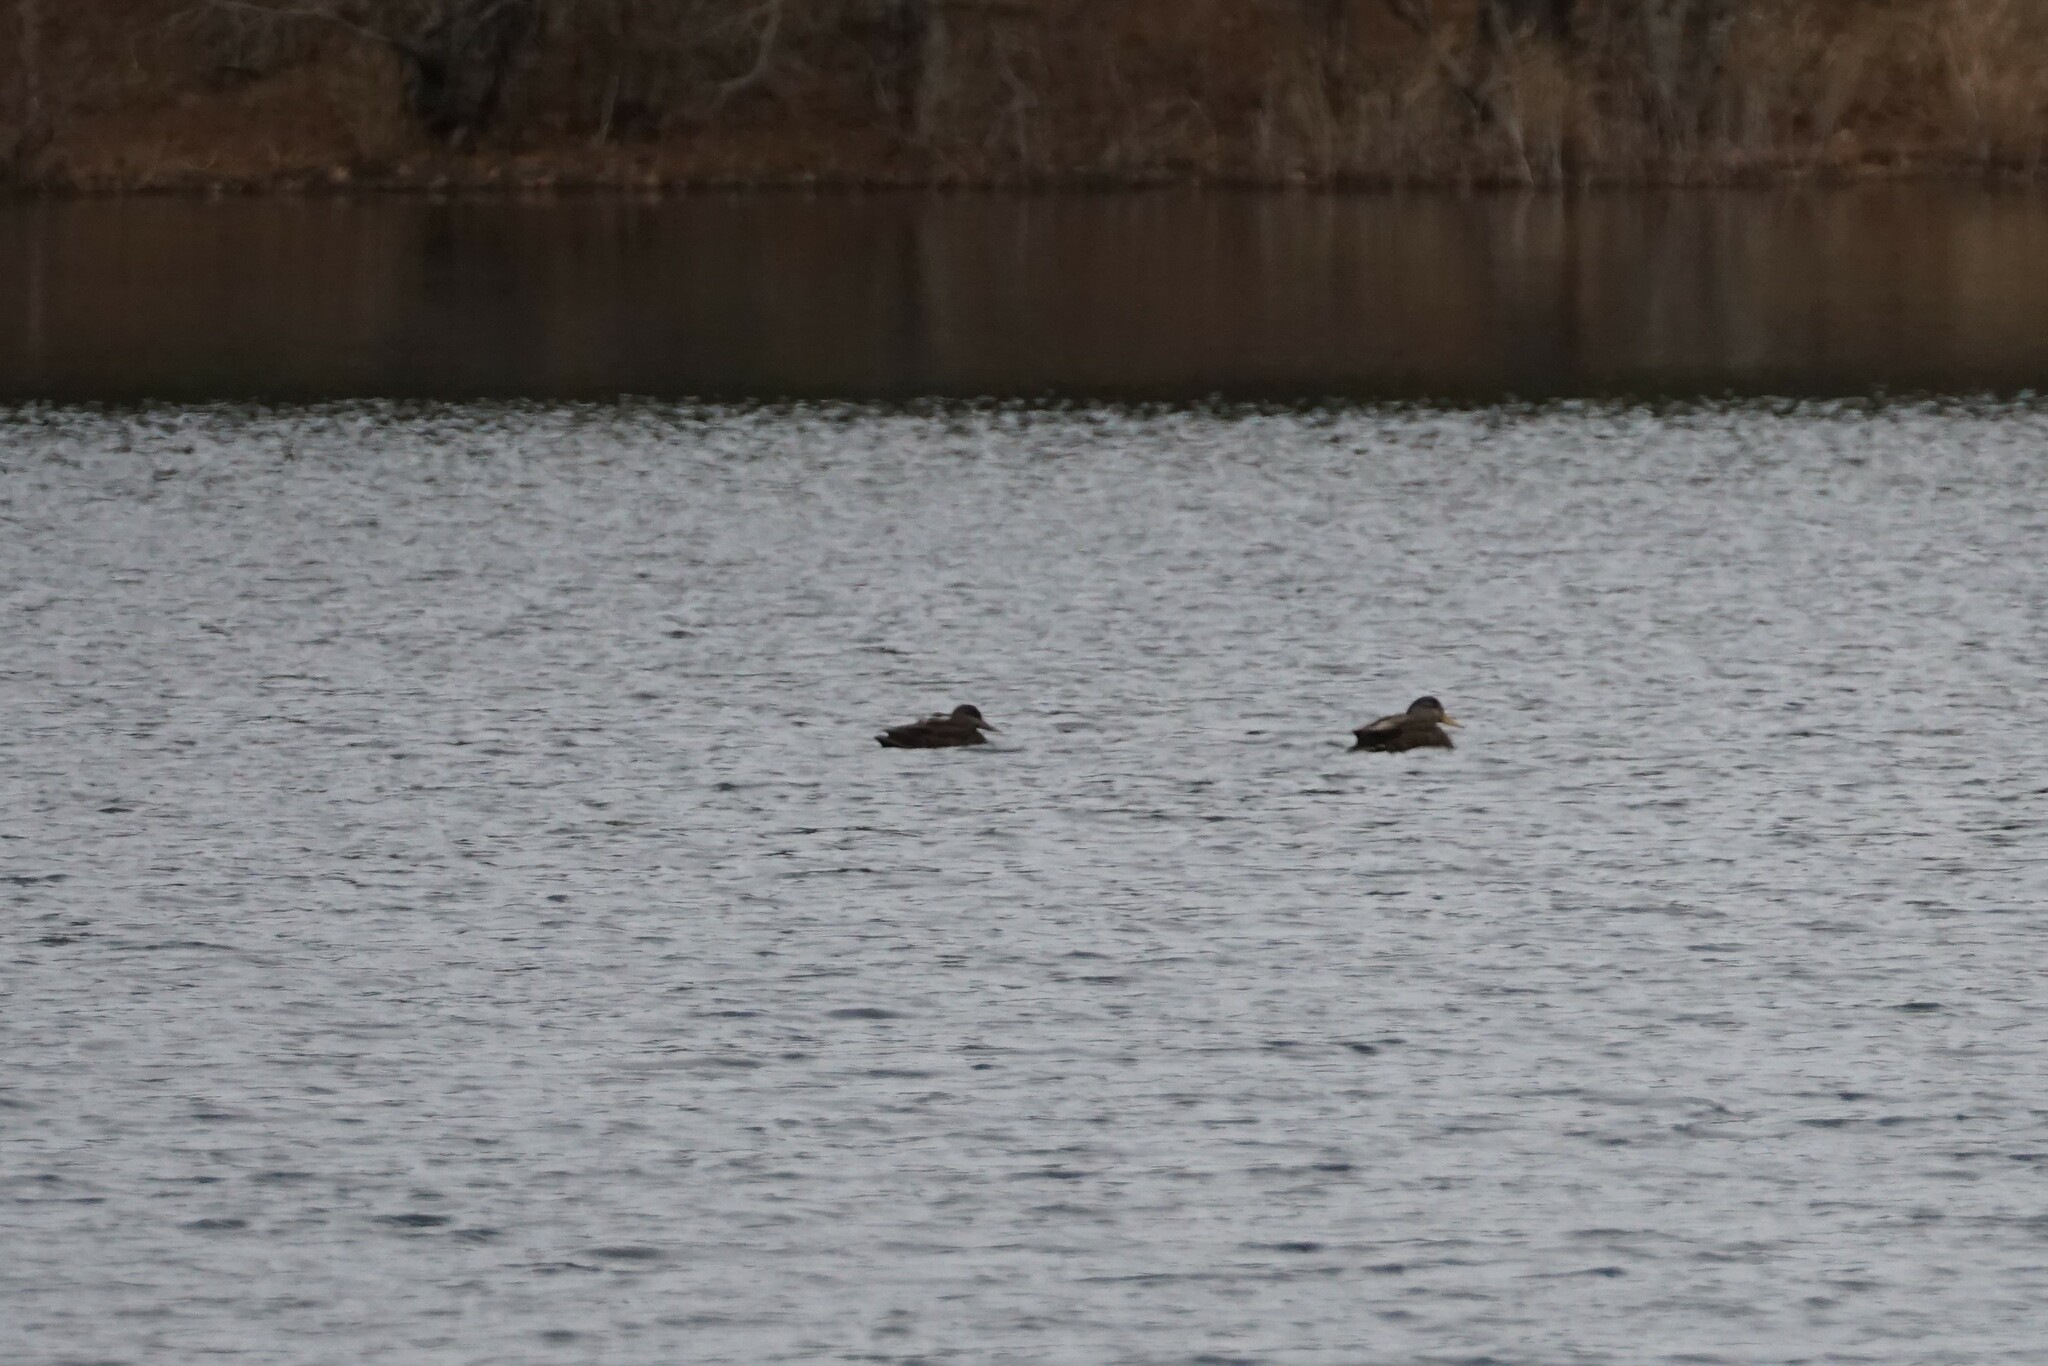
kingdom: Animalia
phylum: Chordata
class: Aves
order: Anseriformes
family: Anatidae
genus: Anas
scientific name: Anas rubripes
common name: American black duck
